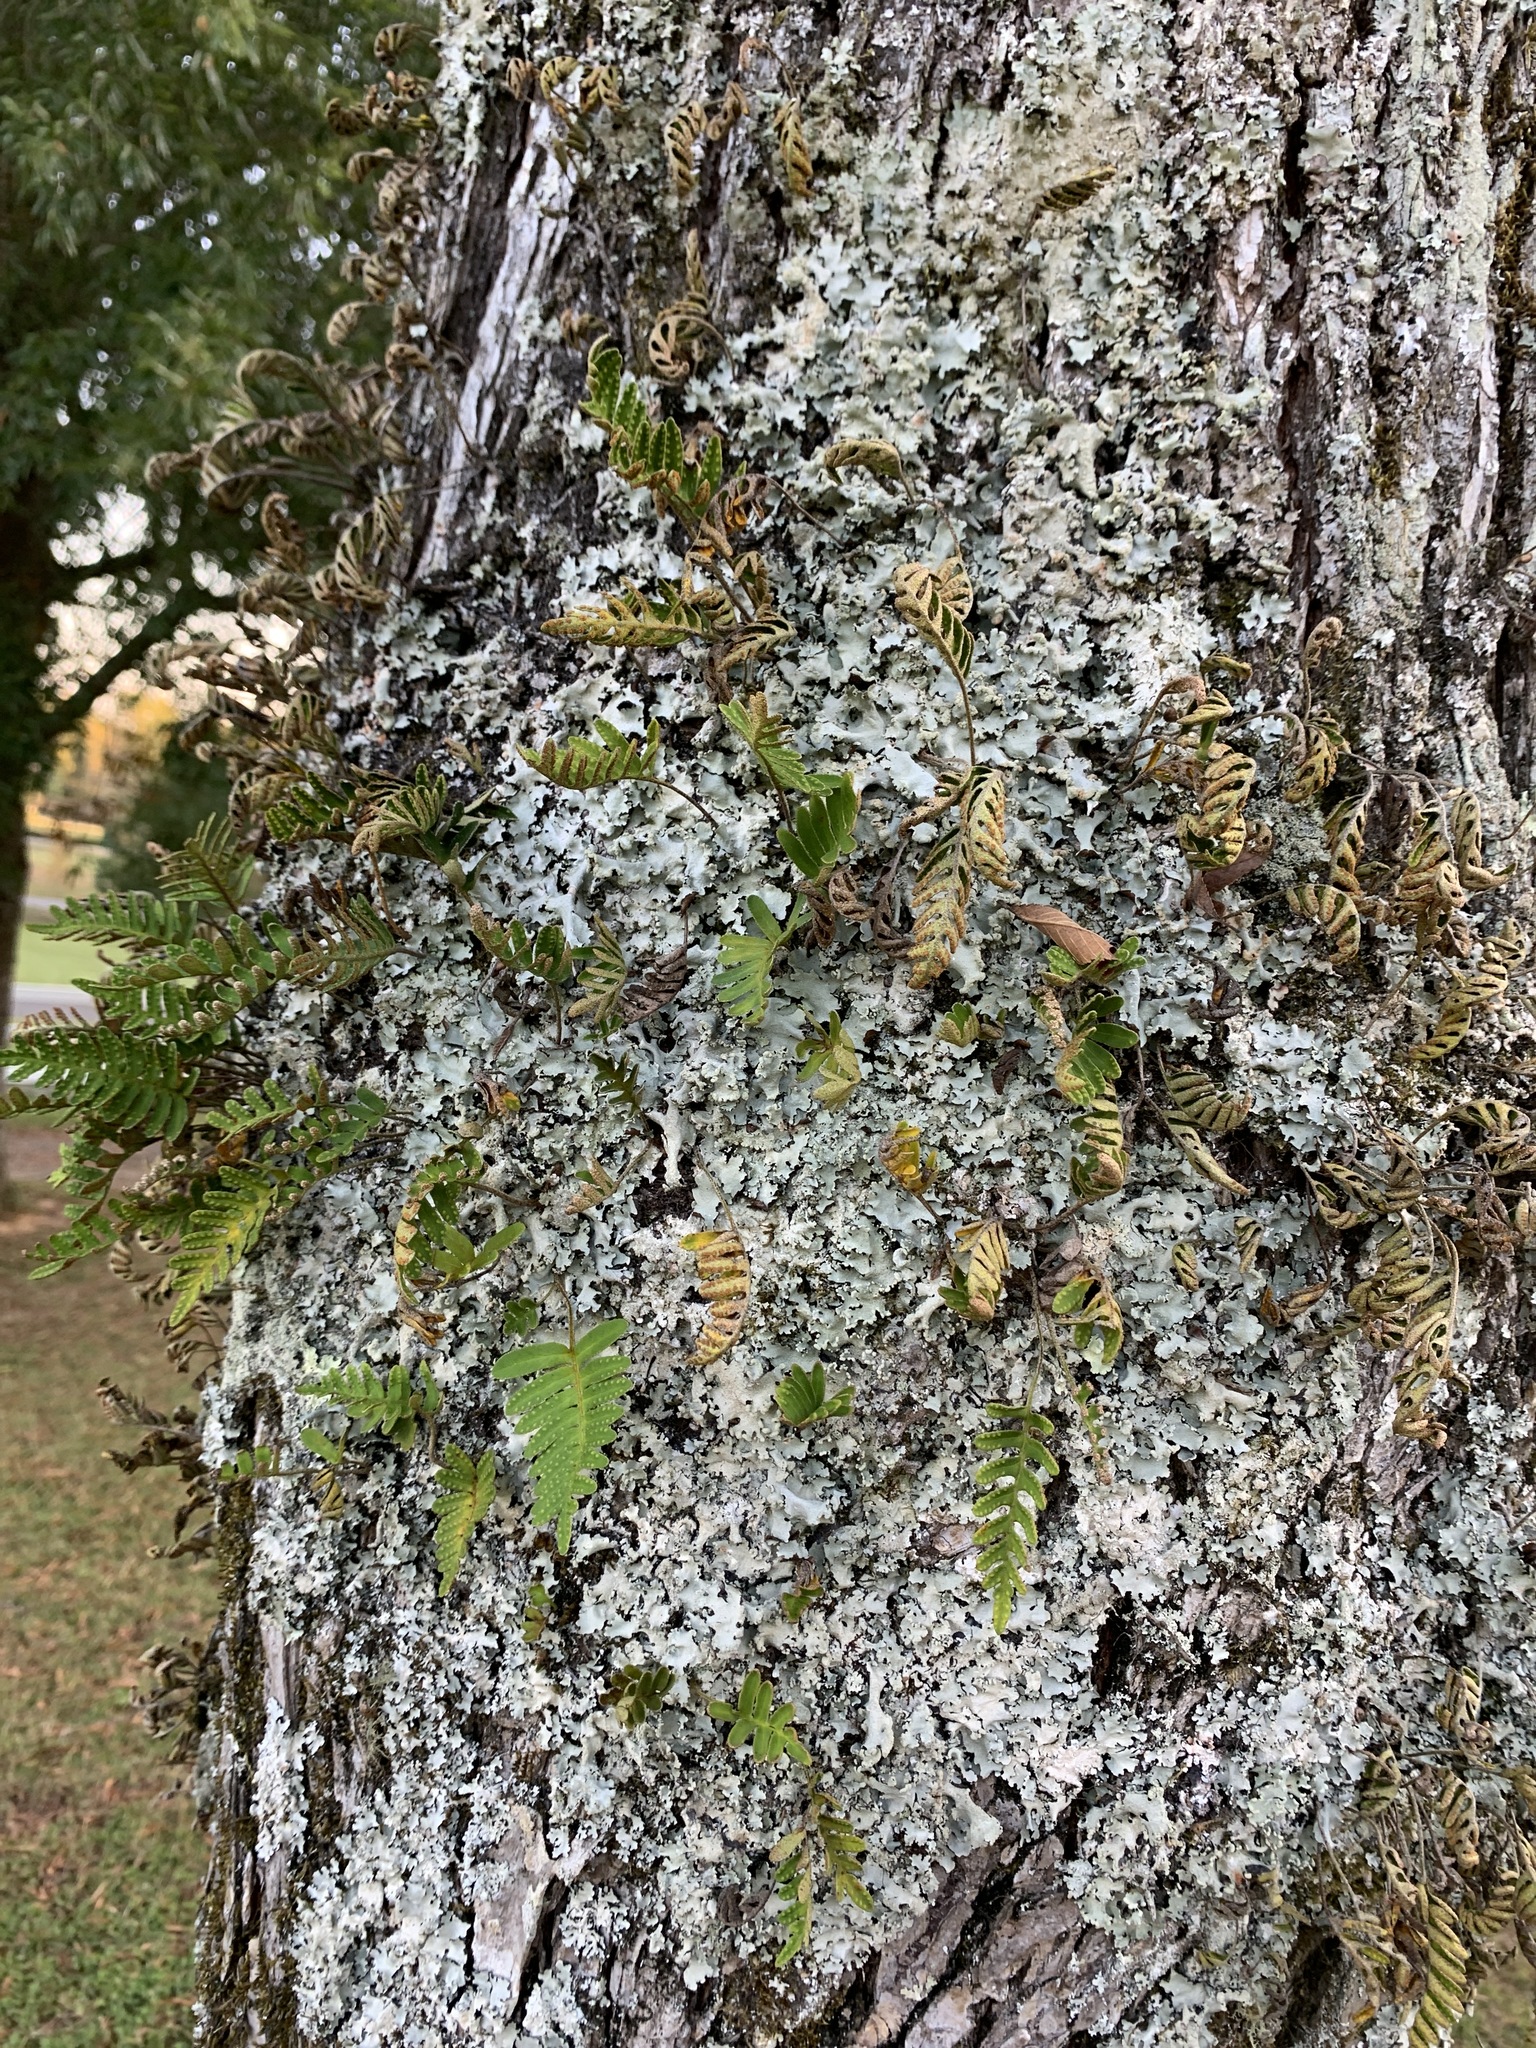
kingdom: Plantae
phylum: Tracheophyta
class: Polypodiopsida
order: Polypodiales
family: Polypodiaceae
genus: Pleopeltis
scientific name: Pleopeltis michauxiana
